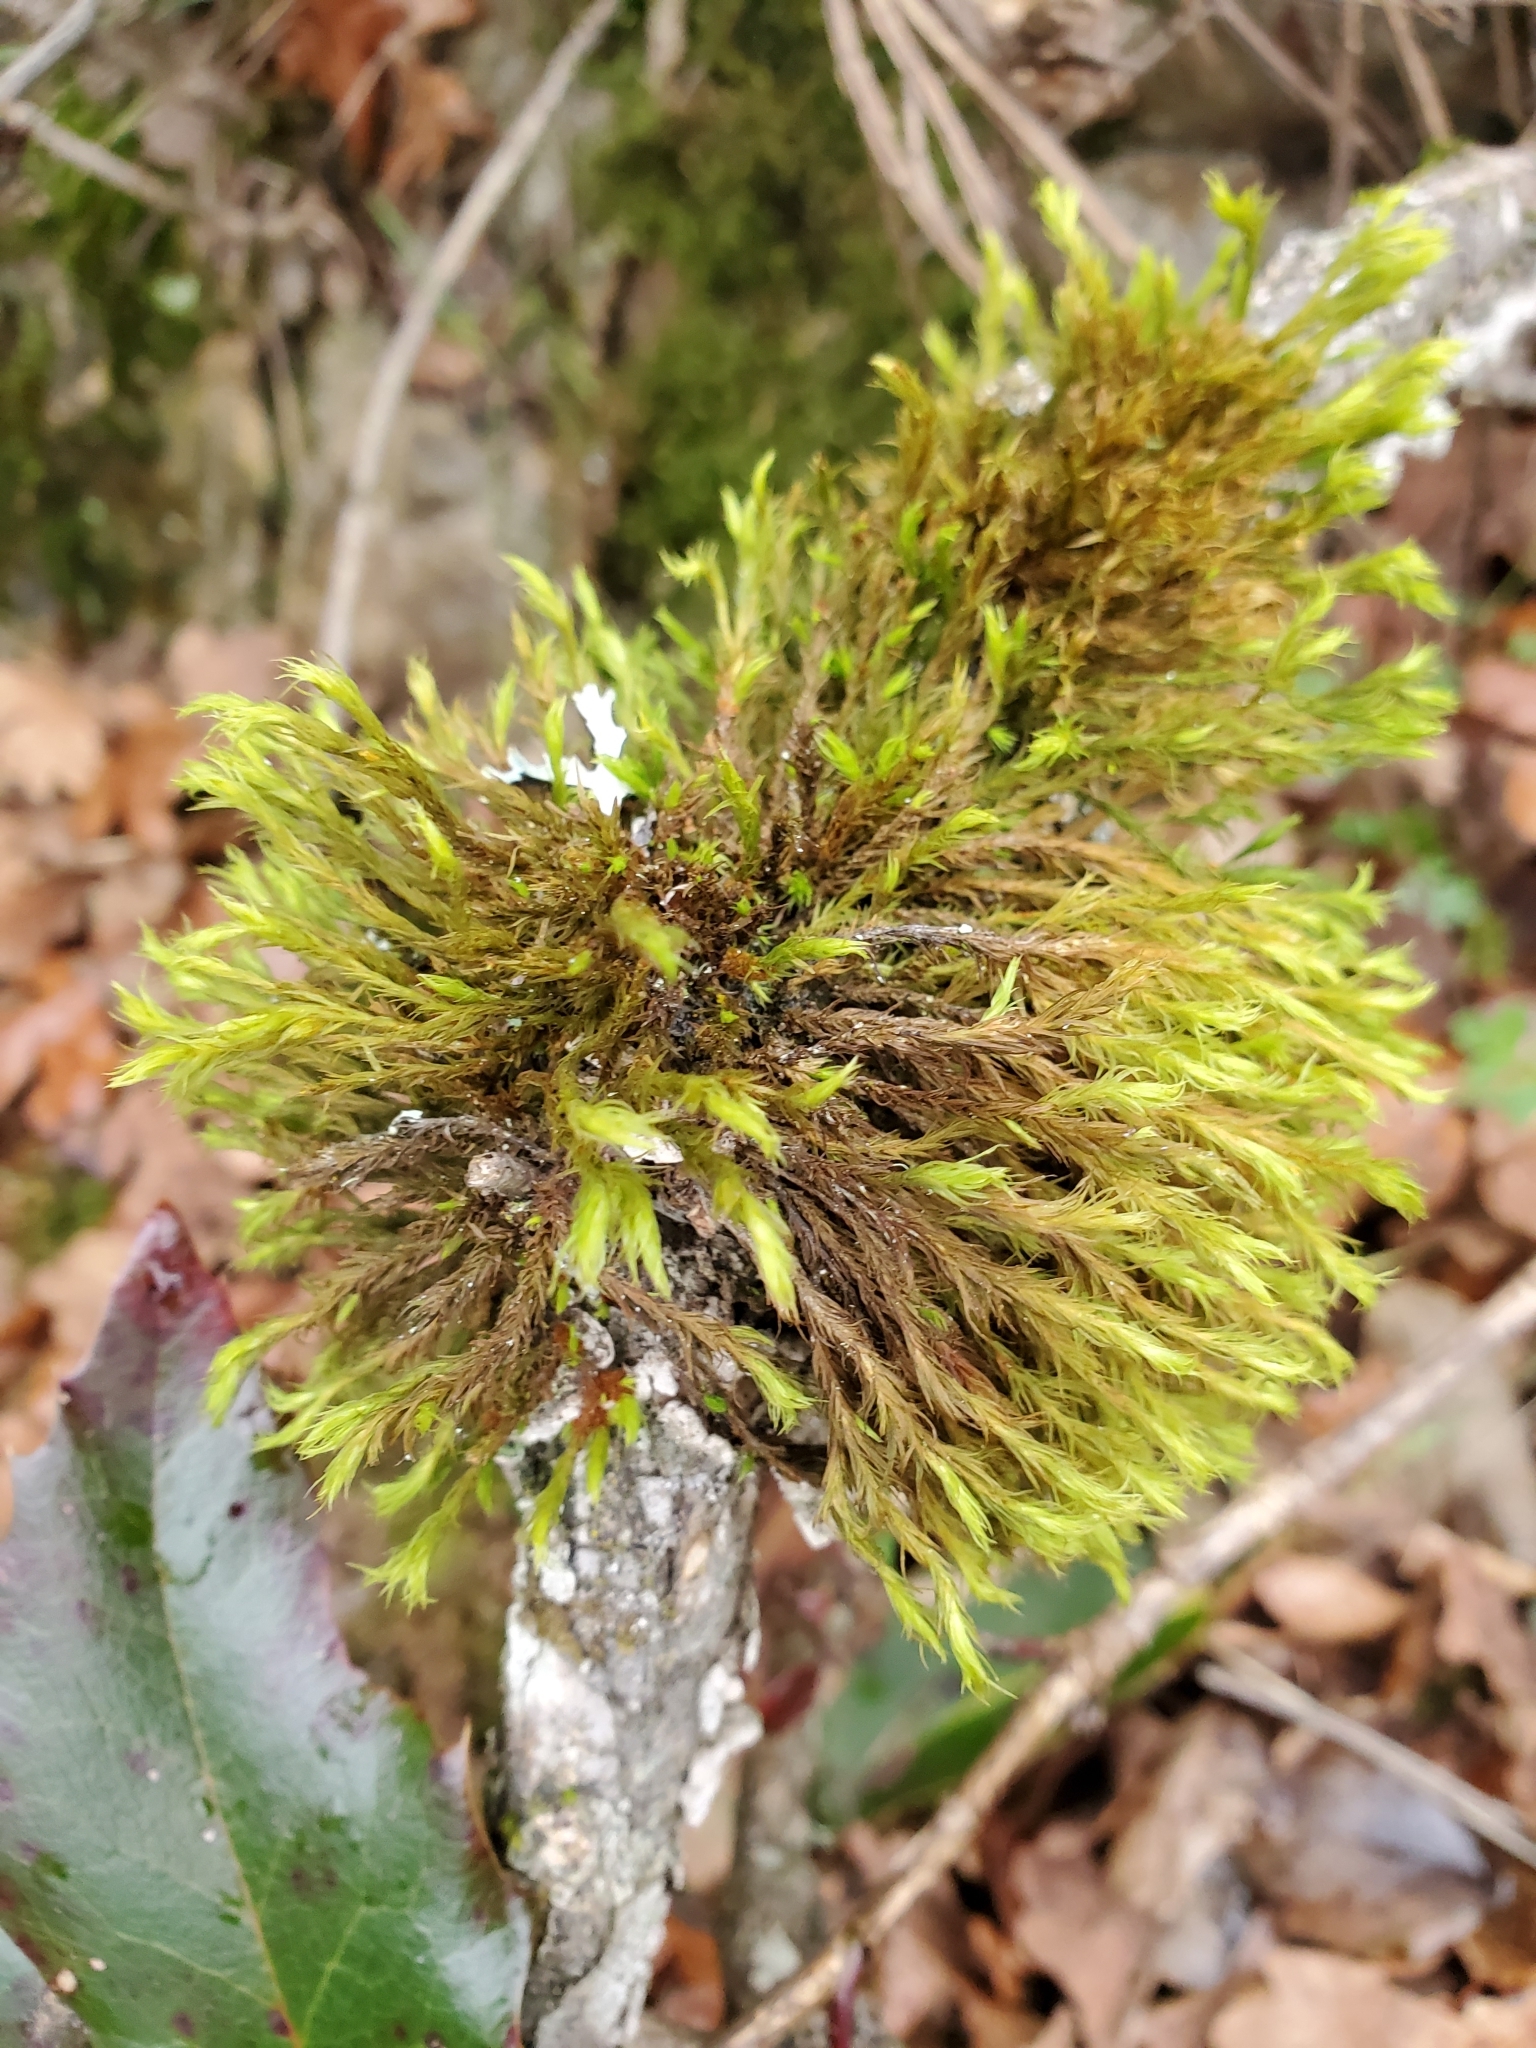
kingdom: Plantae
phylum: Bryophyta
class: Bryopsida
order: Orthotrichales
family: Orthotrichaceae
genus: Pulvigera
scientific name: Pulvigera lyellii
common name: Lyell's bristle-moss
